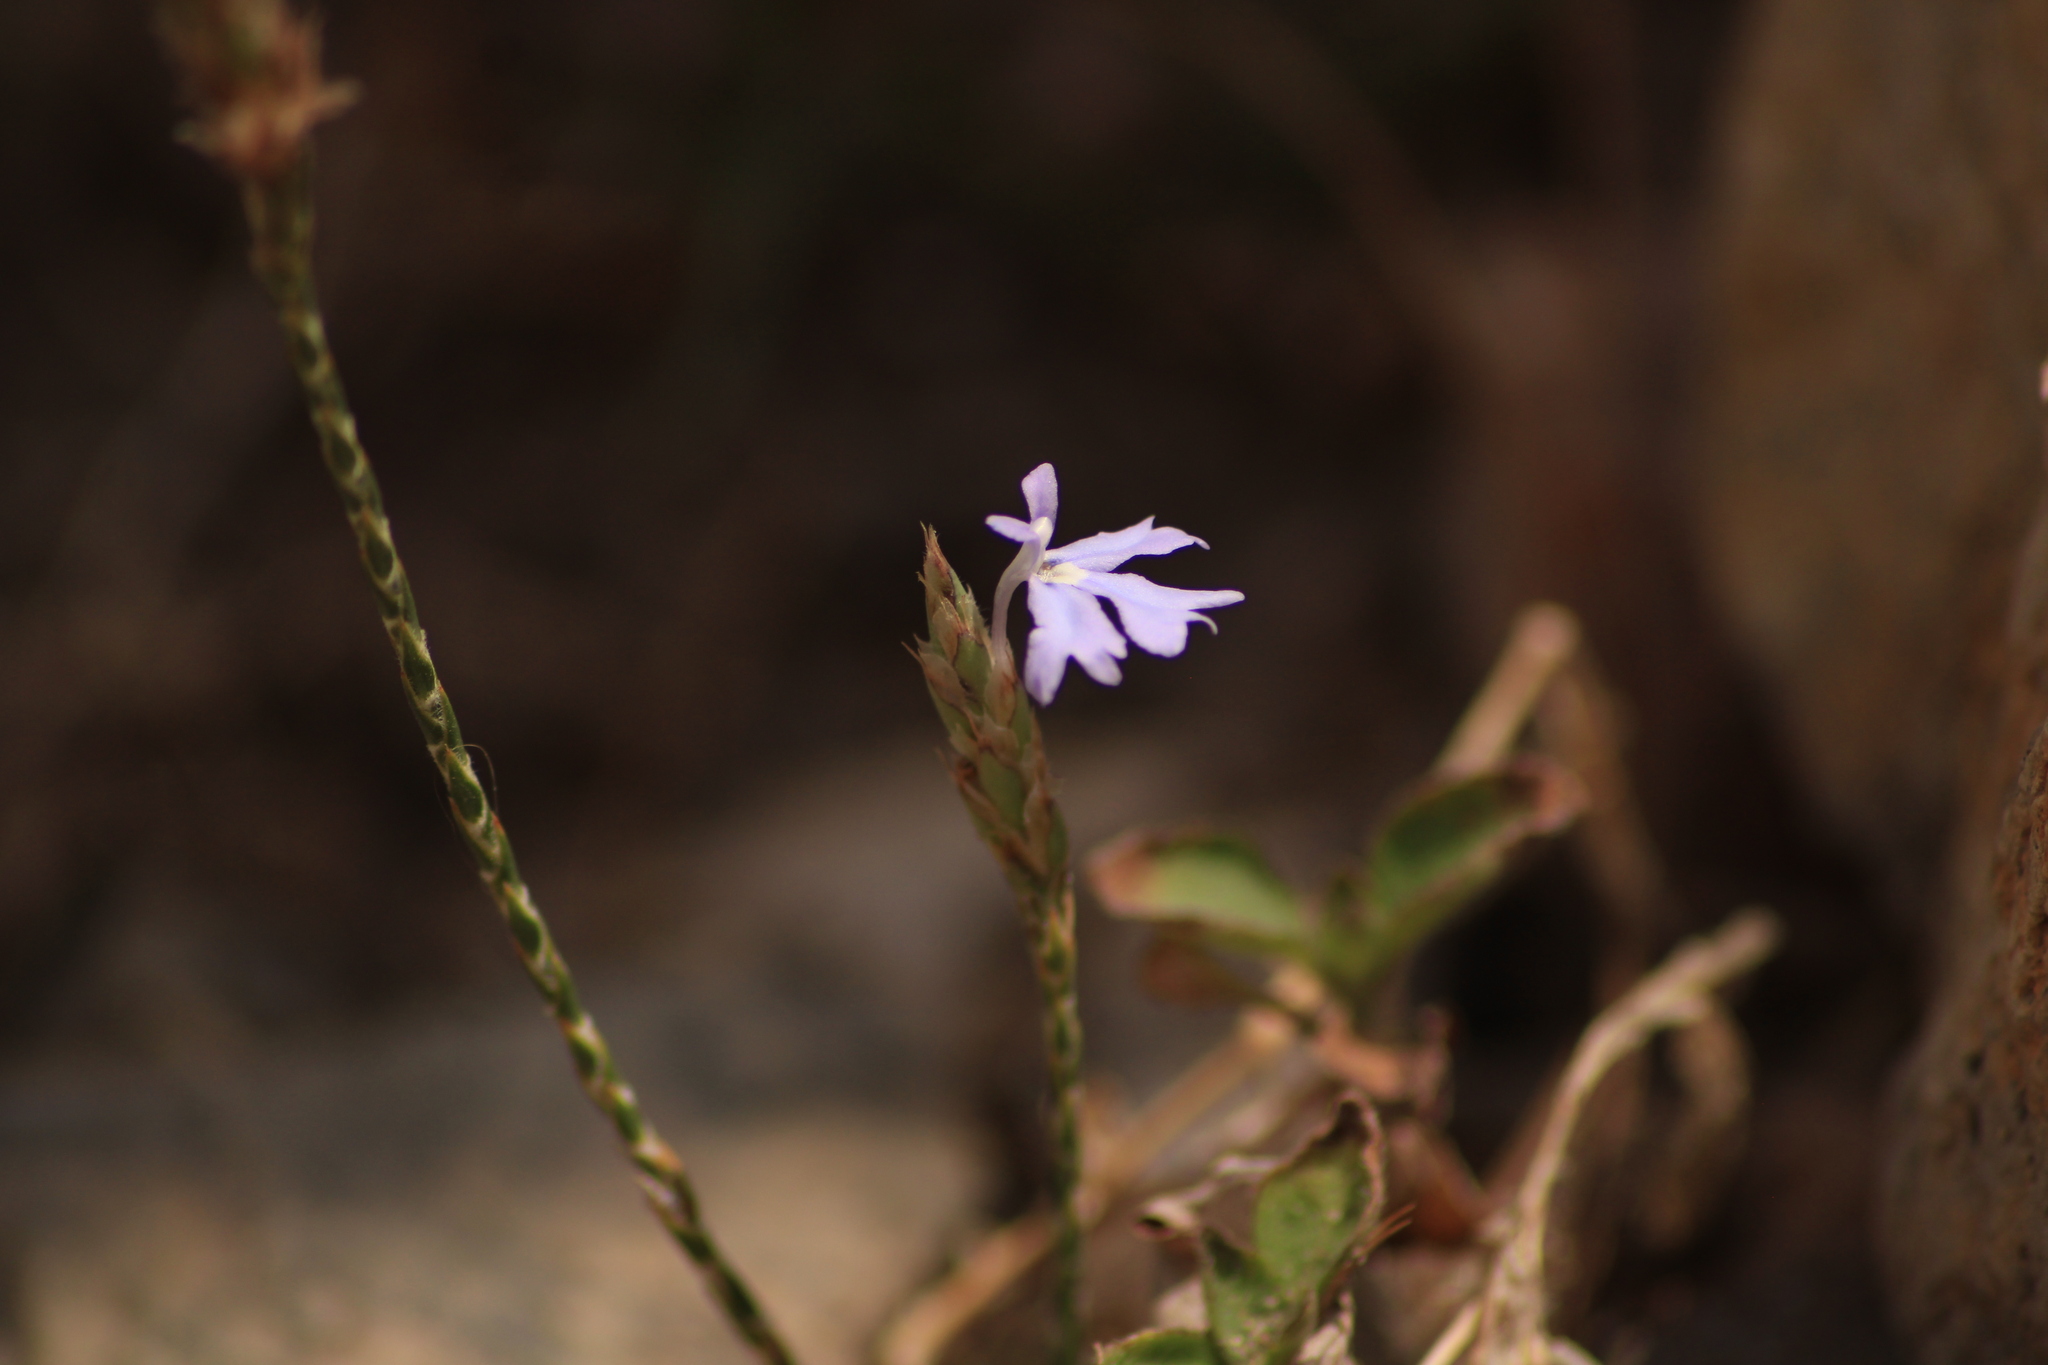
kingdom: Plantae
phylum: Tracheophyta
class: Magnoliopsida
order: Lamiales
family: Acanthaceae
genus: Elytraria
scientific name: Elytraria imbricata
